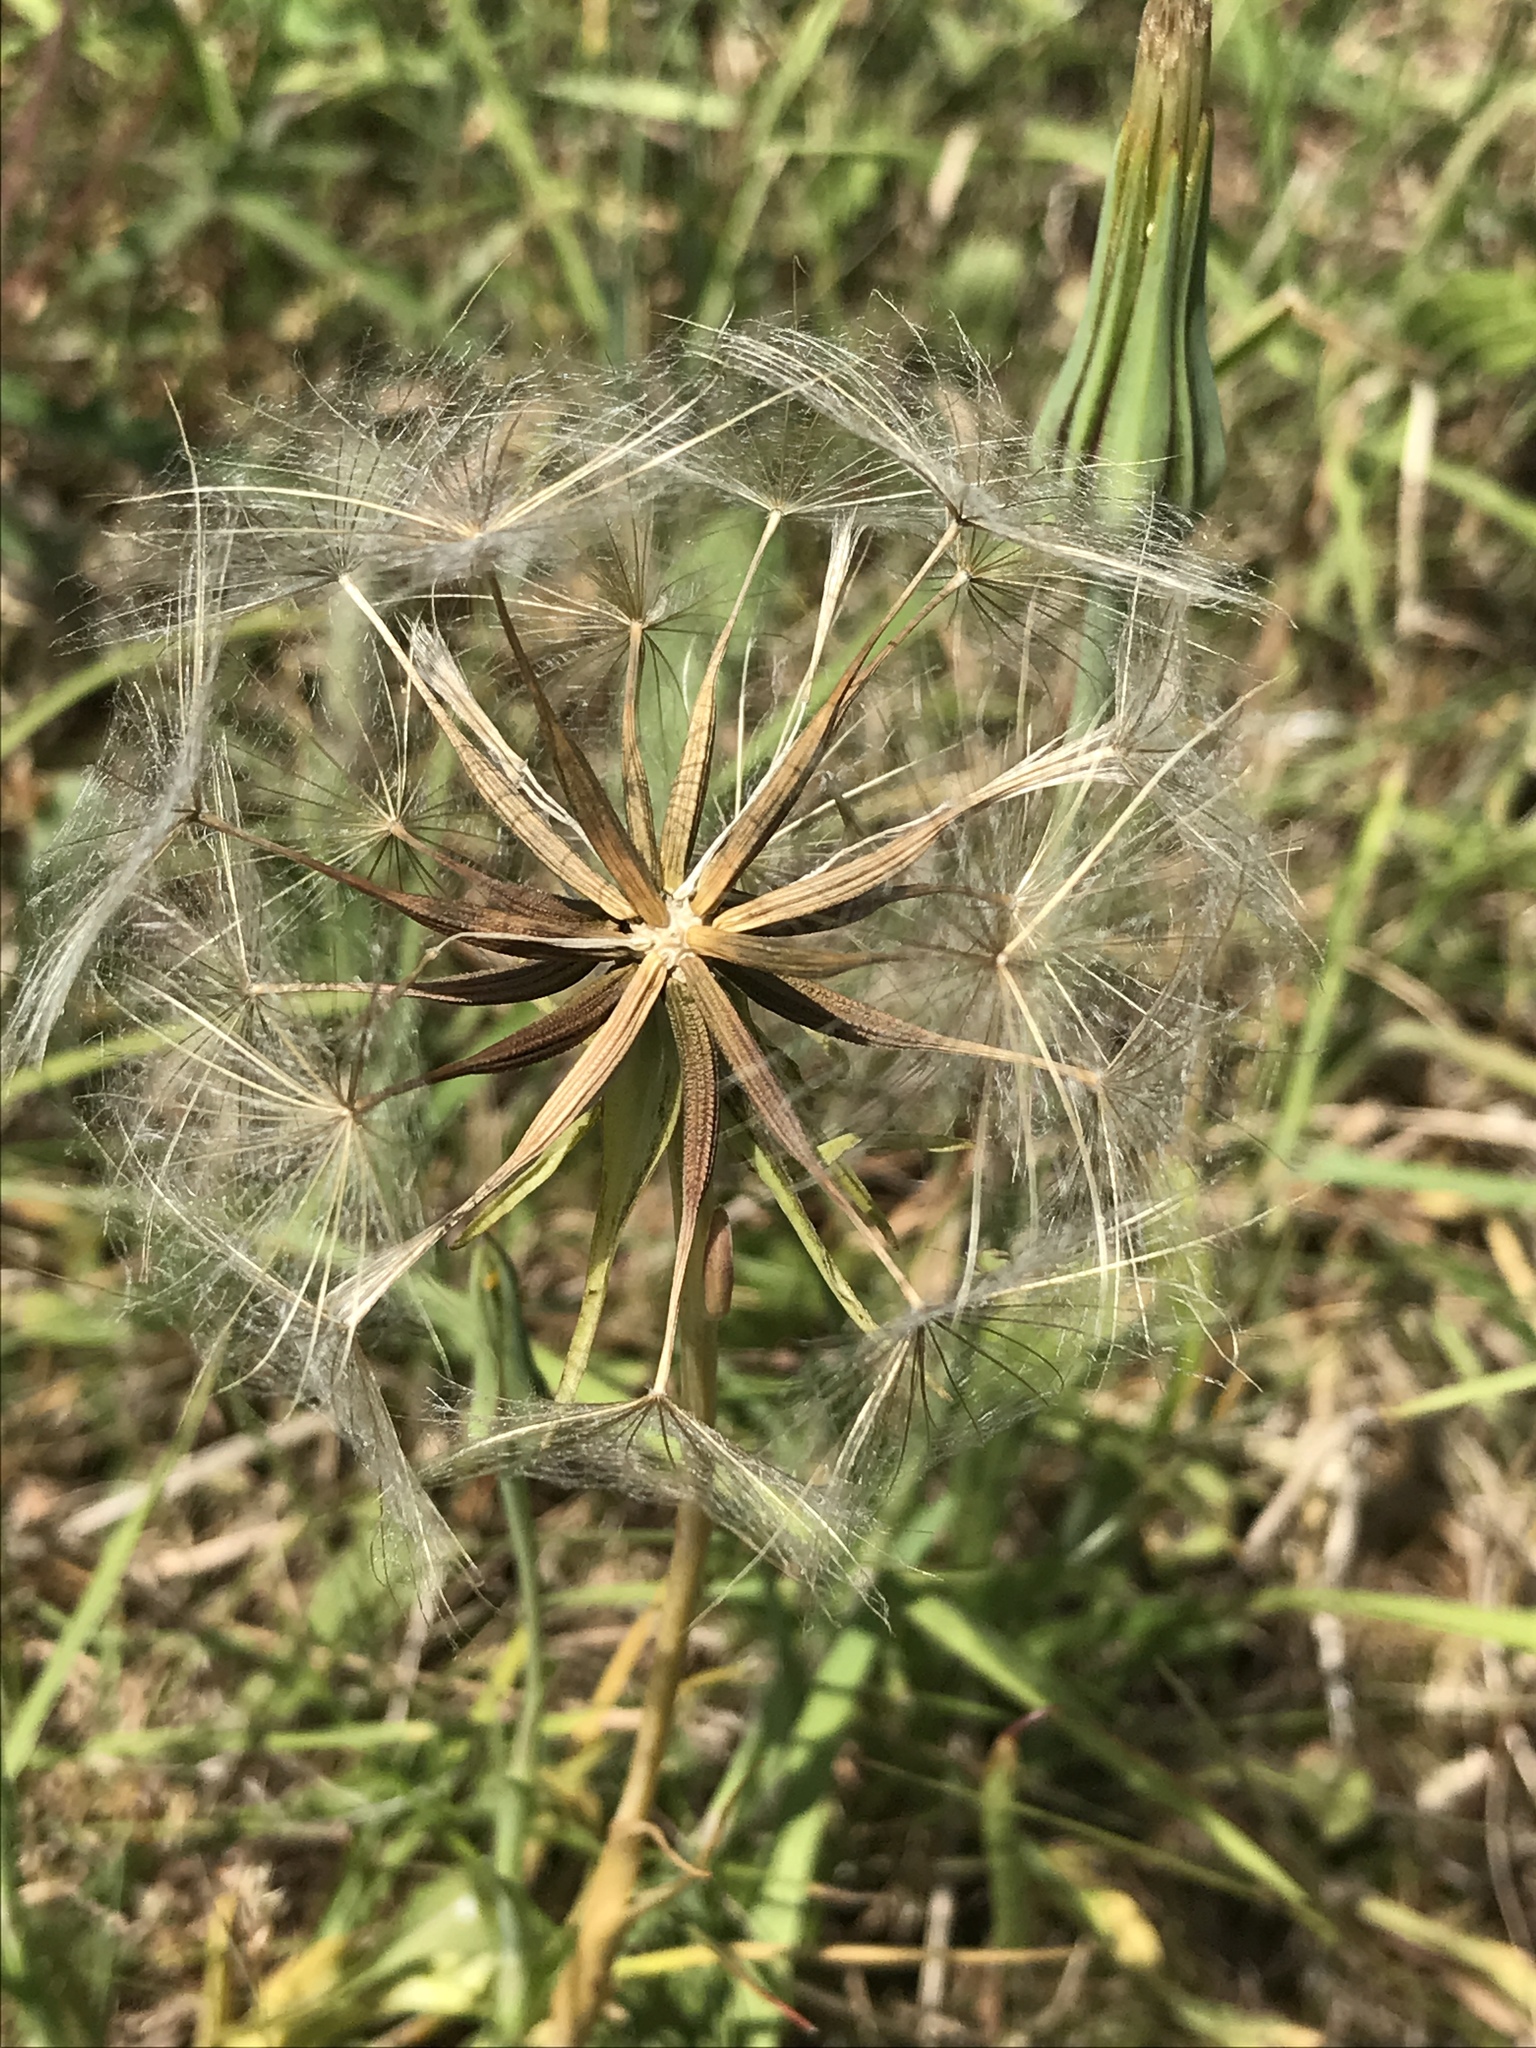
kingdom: Plantae
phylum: Tracheophyta
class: Magnoliopsida
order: Asterales
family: Asteraceae
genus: Tragopogon
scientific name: Tragopogon pratensis
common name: Goat's-beard
